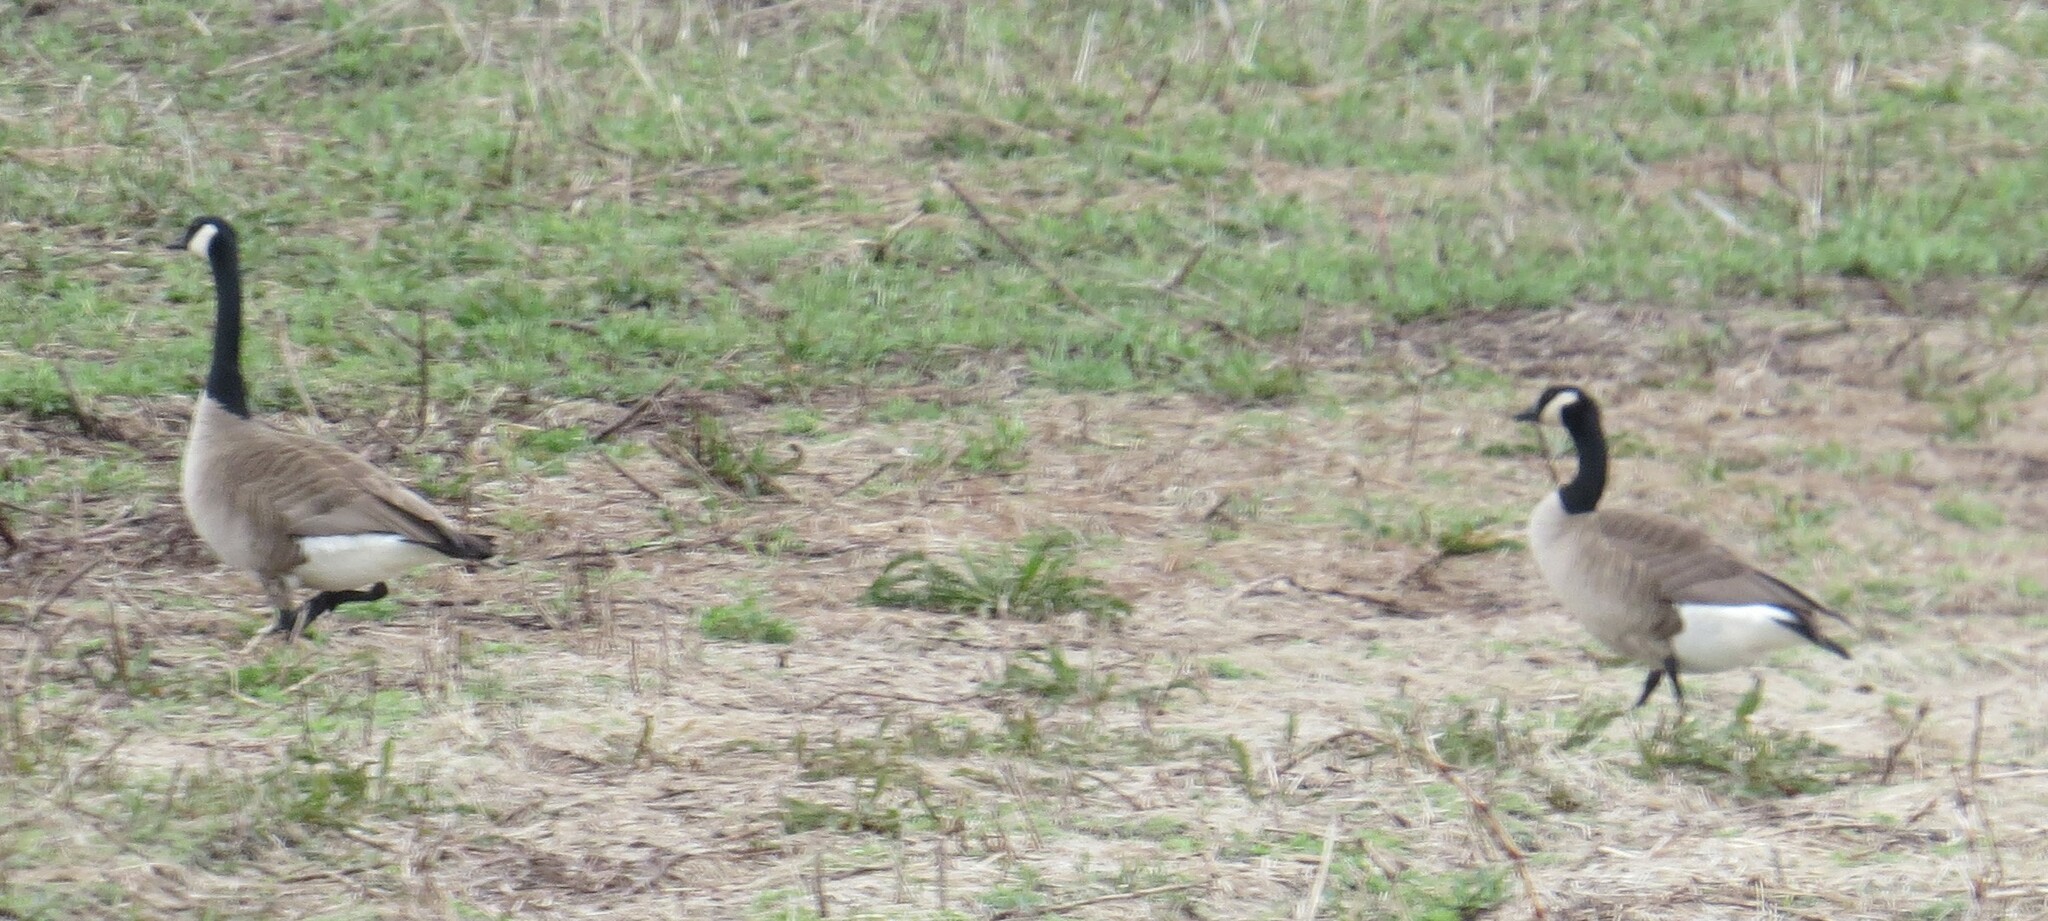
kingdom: Animalia
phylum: Chordata
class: Aves
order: Anseriformes
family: Anatidae
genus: Branta
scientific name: Branta canadensis
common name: Canada goose
